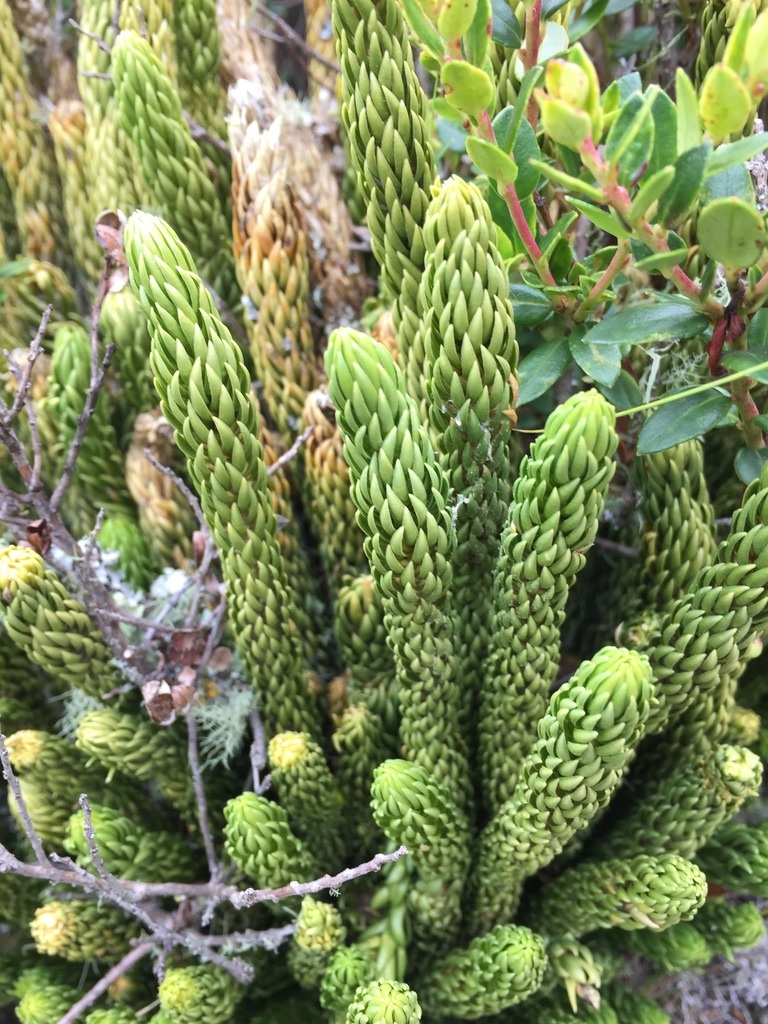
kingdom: Plantae
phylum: Tracheophyta
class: Lycopodiopsida
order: Lycopodiales
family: Lycopodiaceae
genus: Phlegmariurus
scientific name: Phlegmariurus saururus
